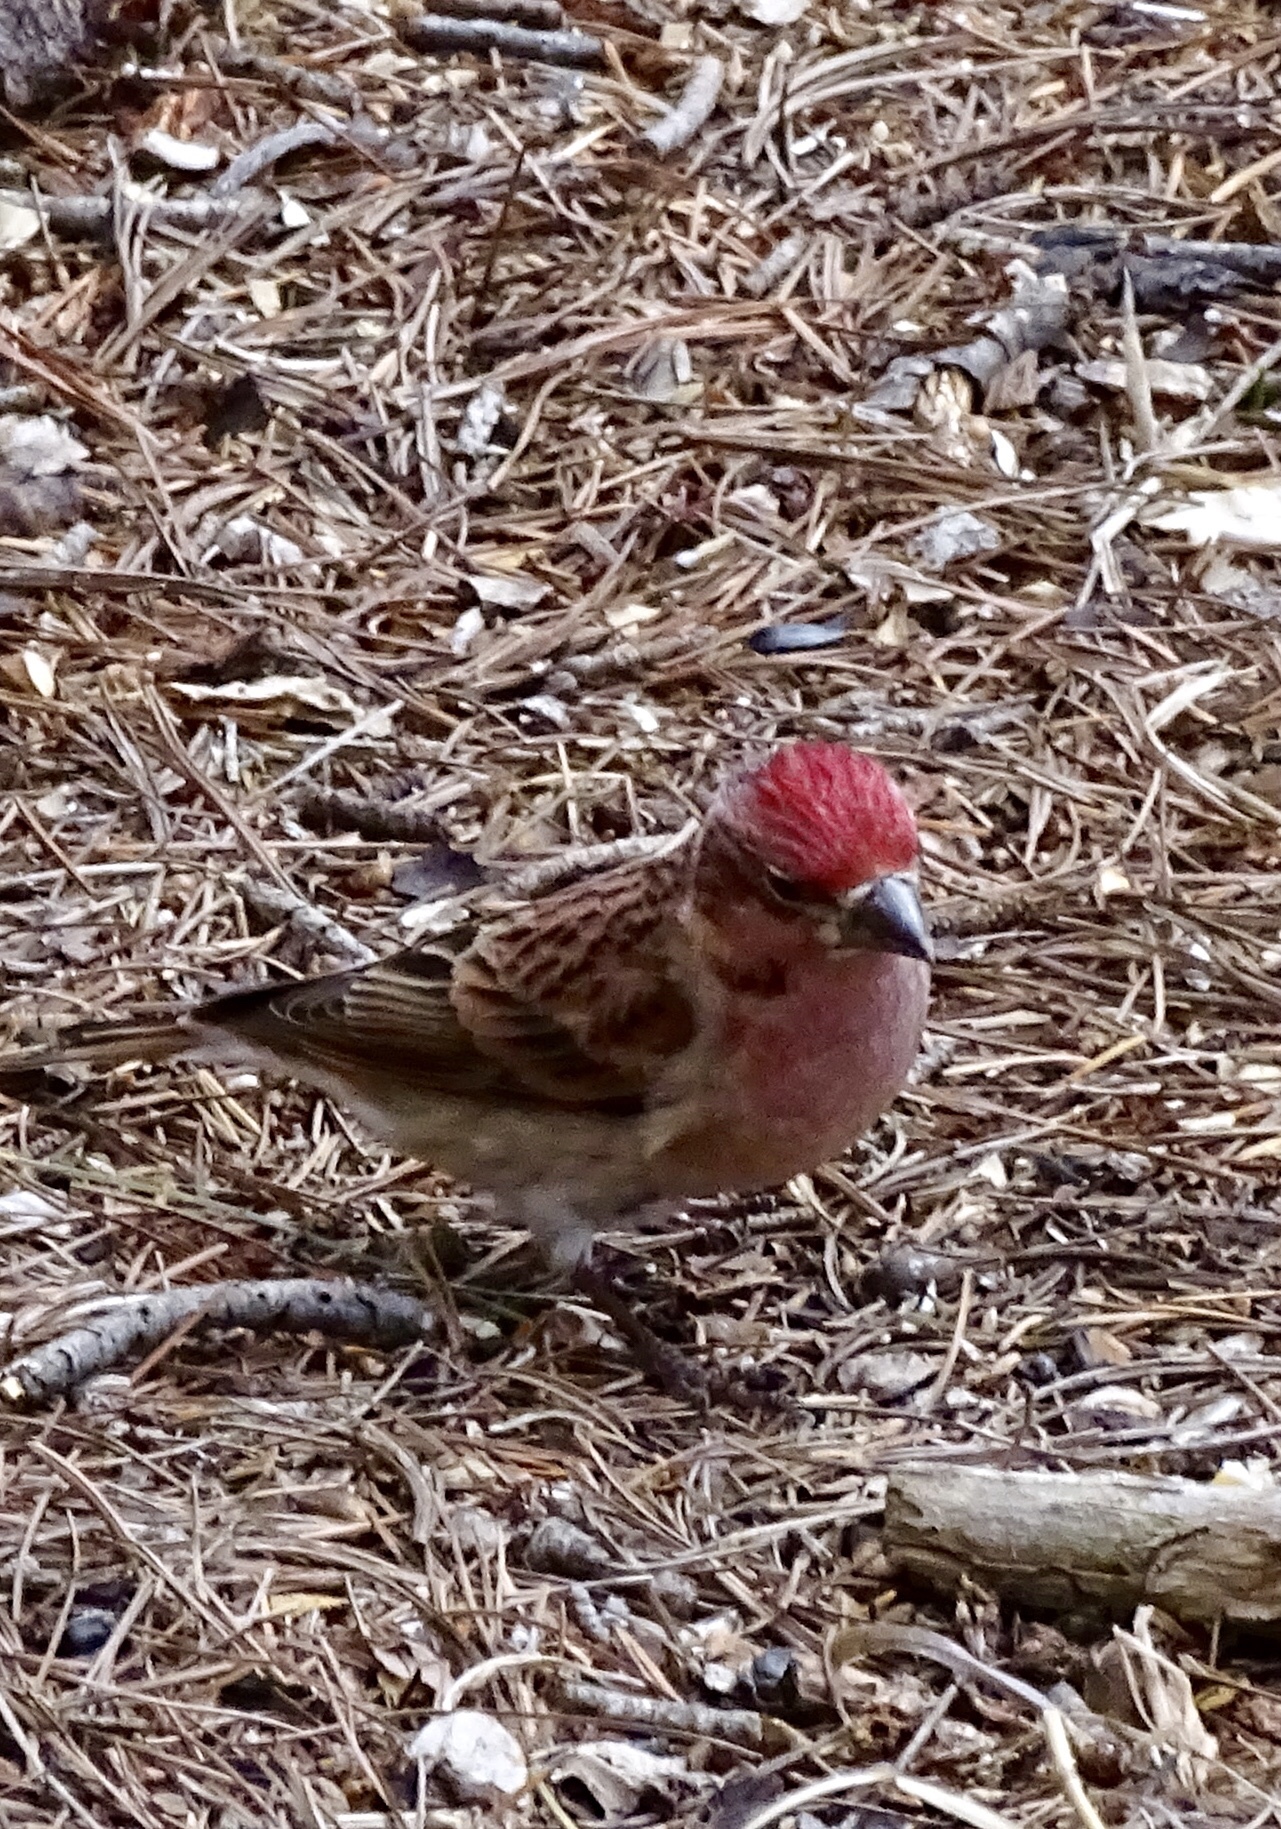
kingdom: Animalia
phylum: Chordata
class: Aves
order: Passeriformes
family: Fringillidae
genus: Haemorhous
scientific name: Haemorhous cassinii
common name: Cassin's finch
